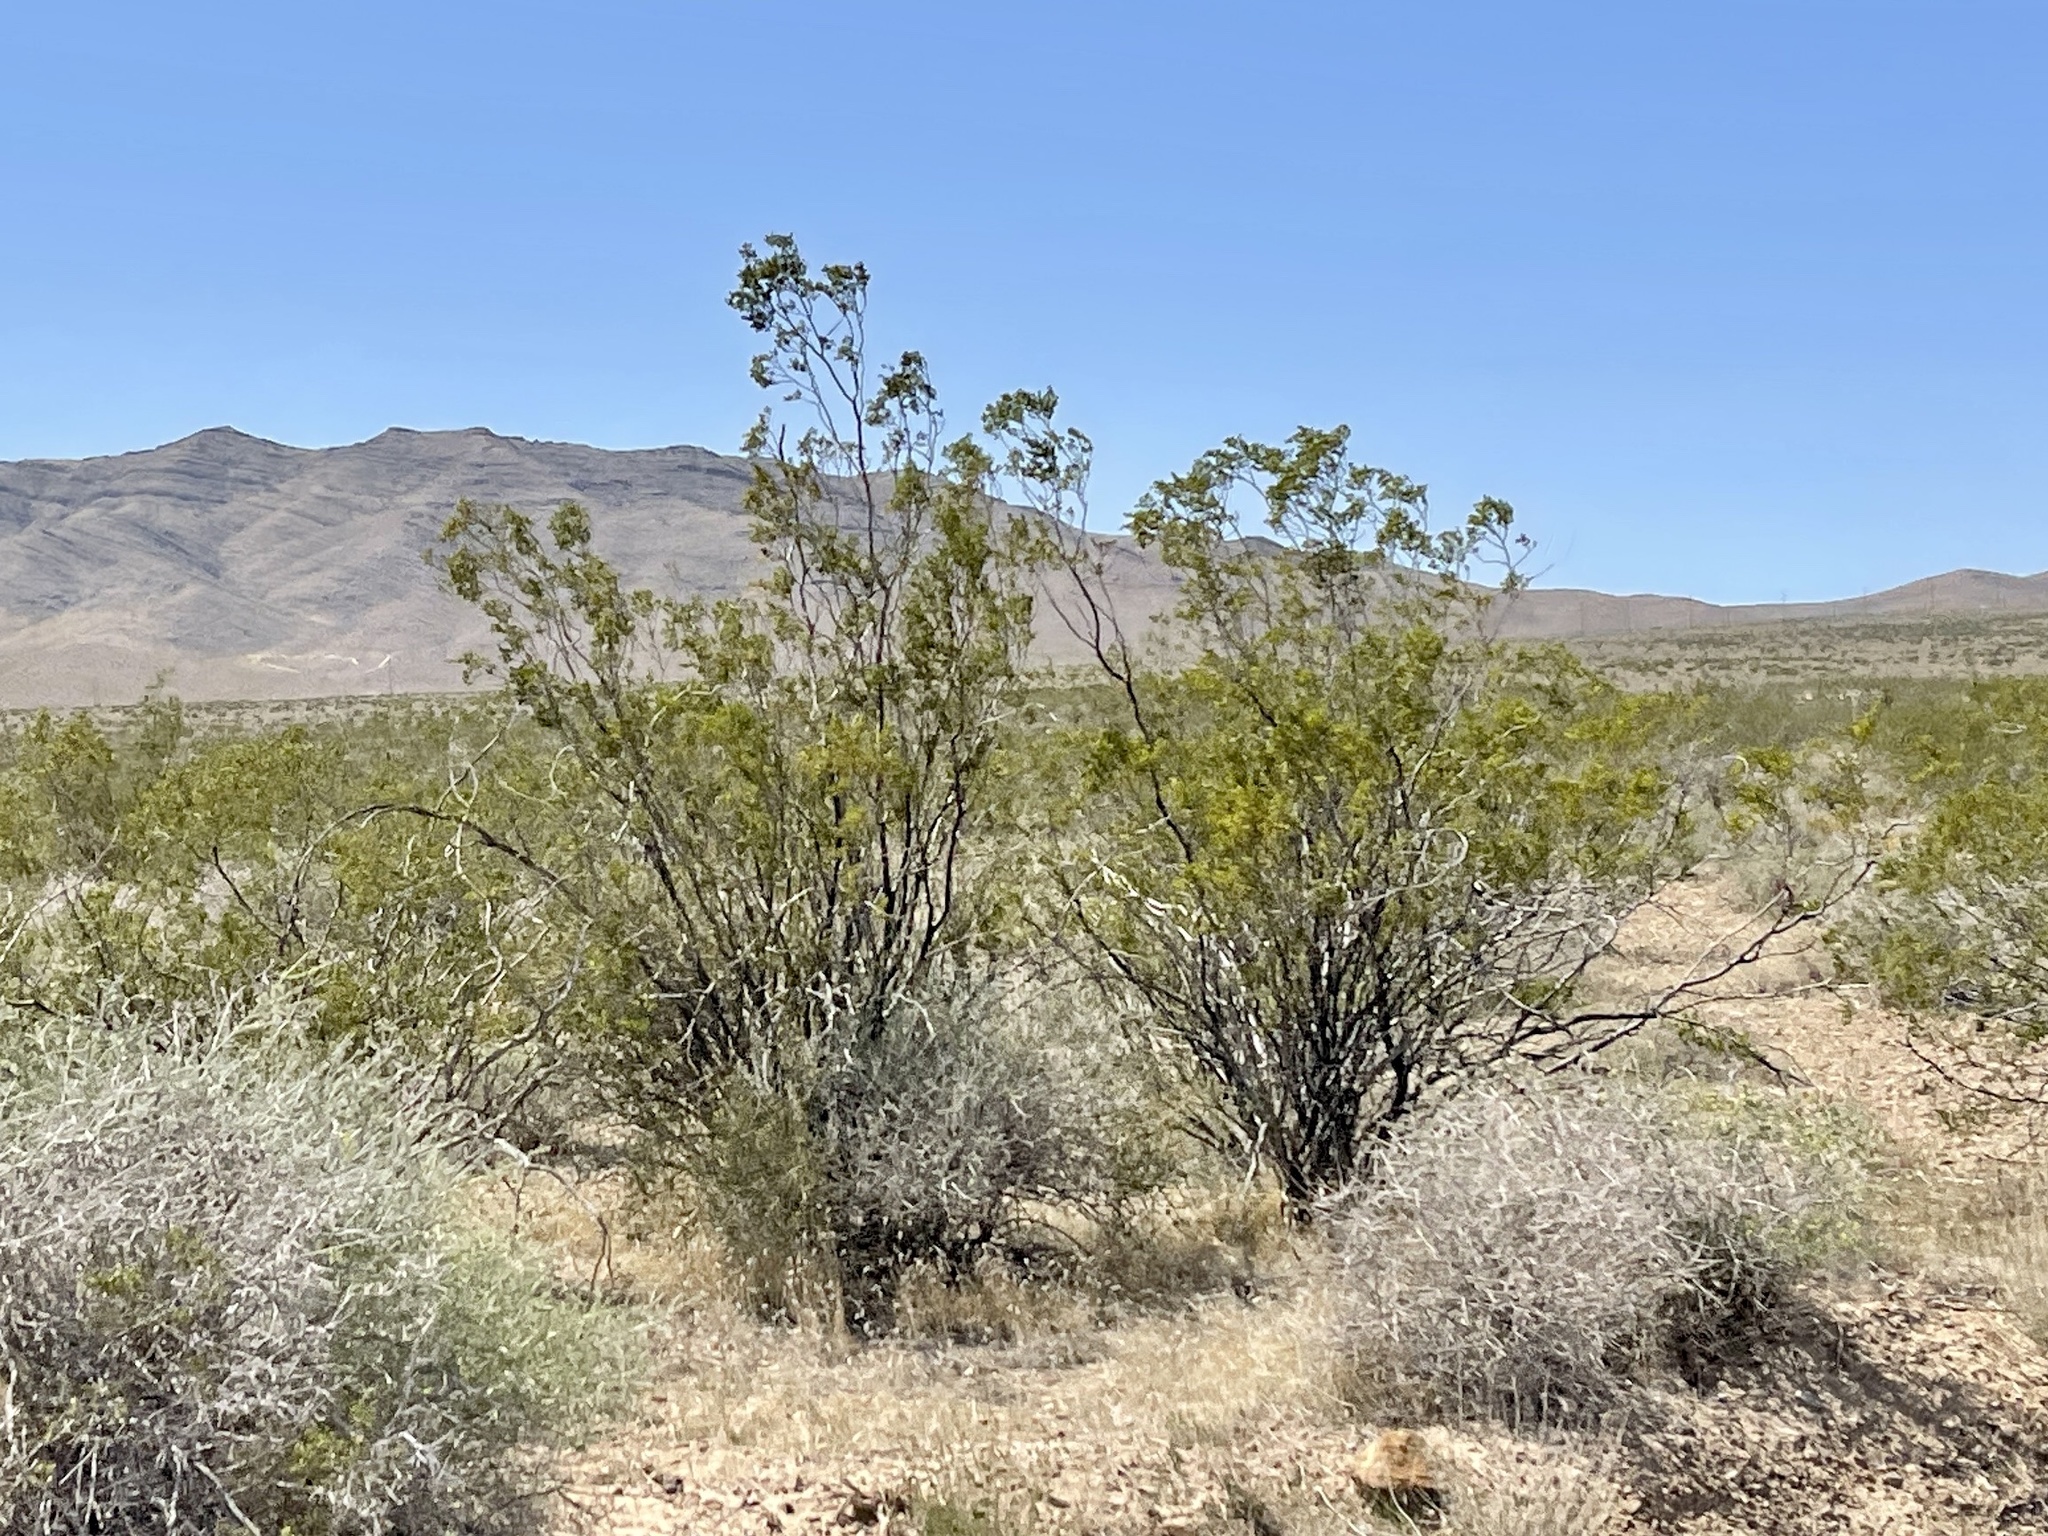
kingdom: Plantae
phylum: Tracheophyta
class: Magnoliopsida
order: Zygophyllales
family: Zygophyllaceae
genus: Larrea
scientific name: Larrea tridentata
